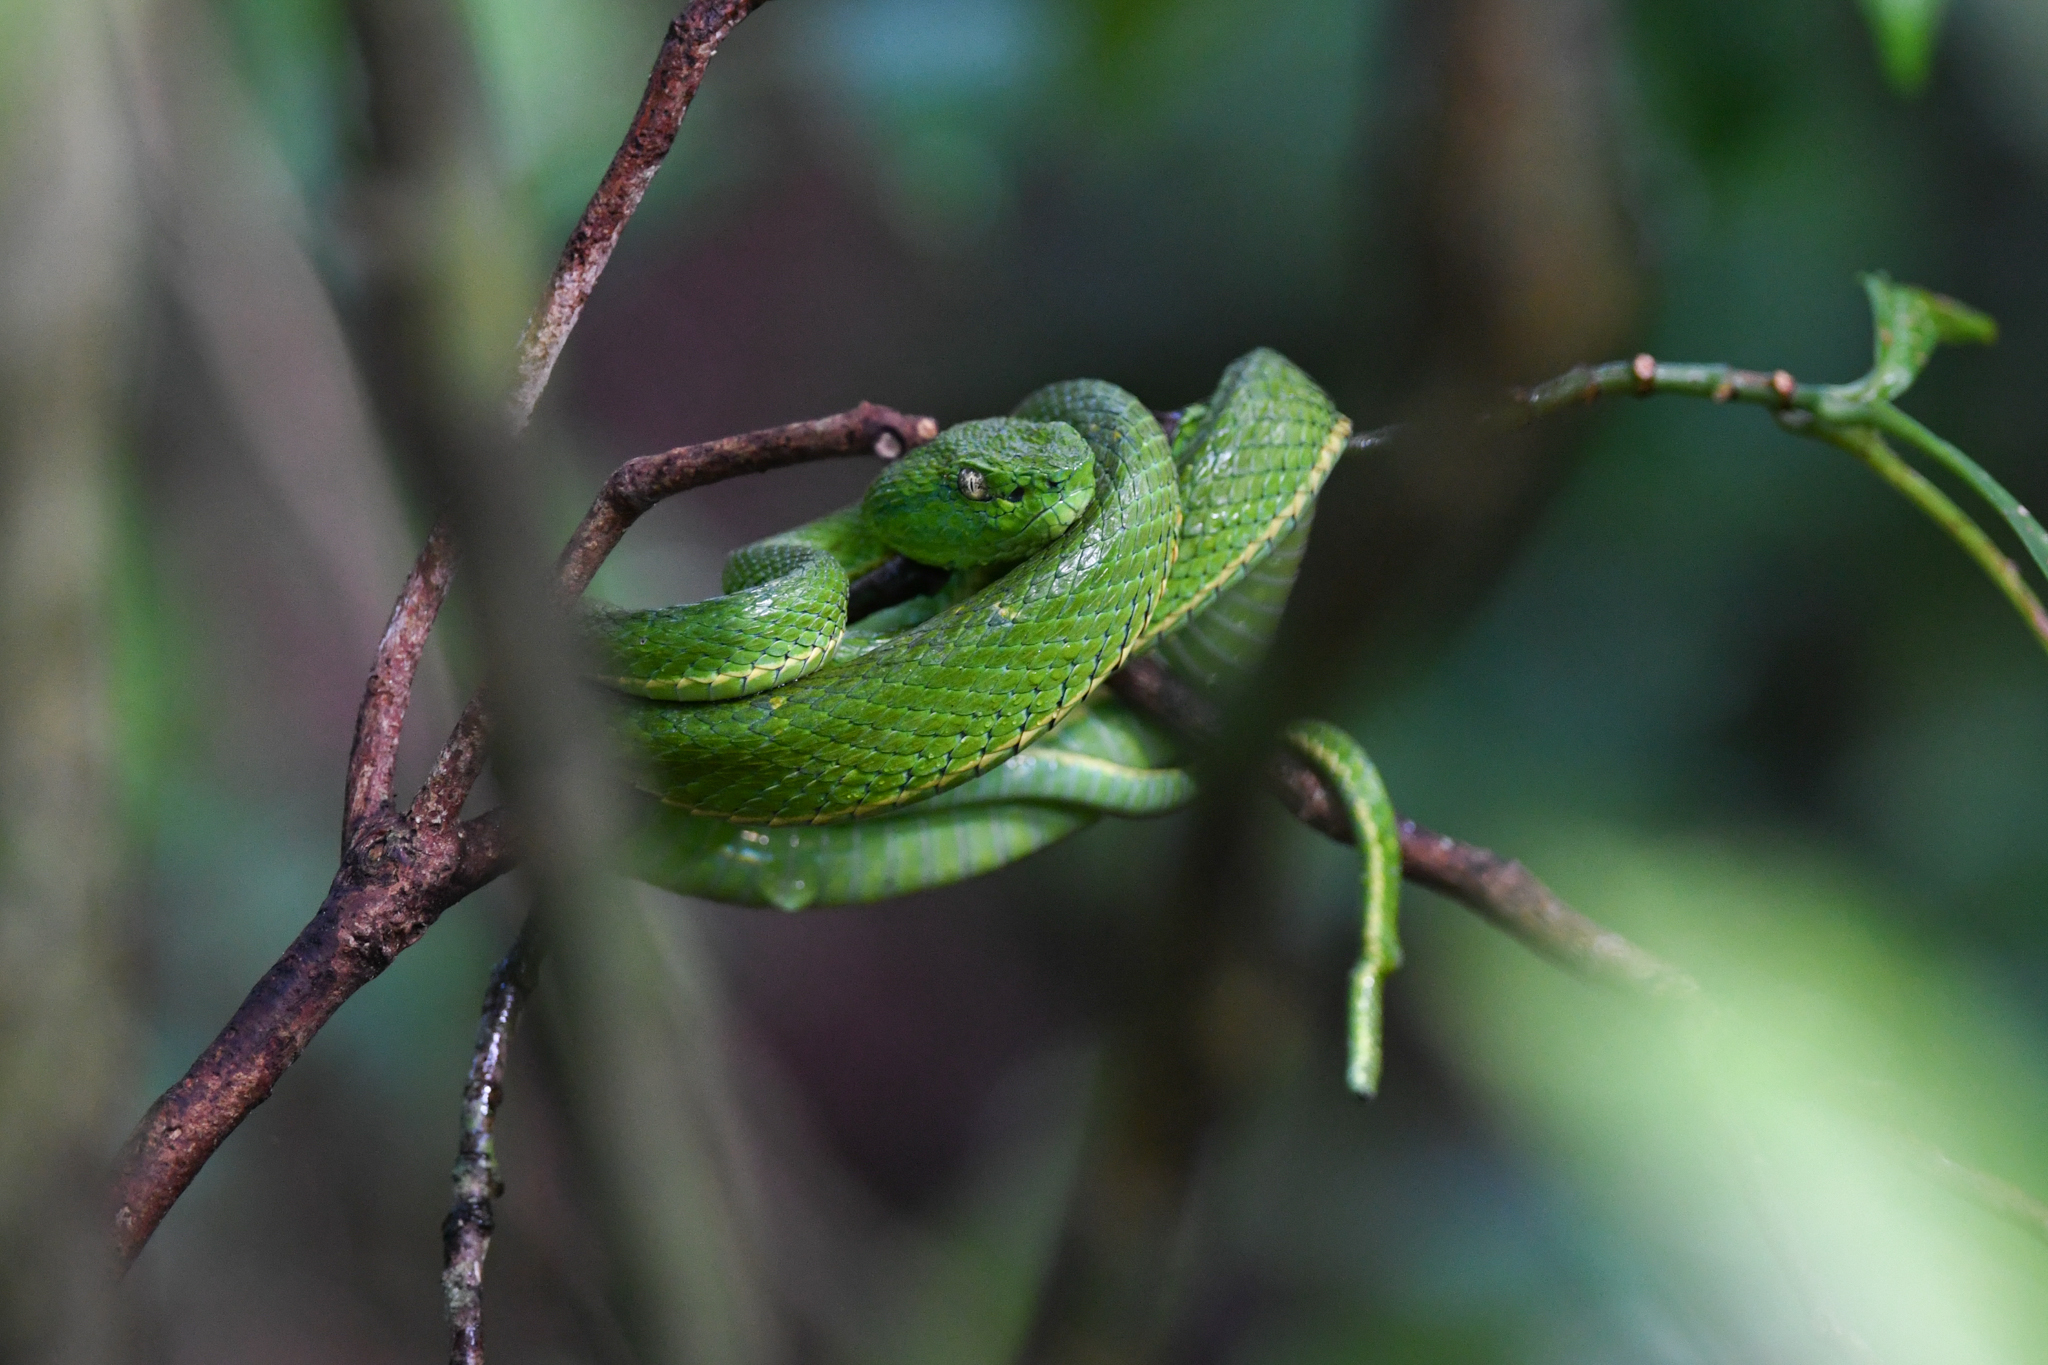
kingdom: Animalia
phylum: Chordata
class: Squamata
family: Viperidae
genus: Bothriechis
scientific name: Bothriechis lateralis
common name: Coffee palm viper
